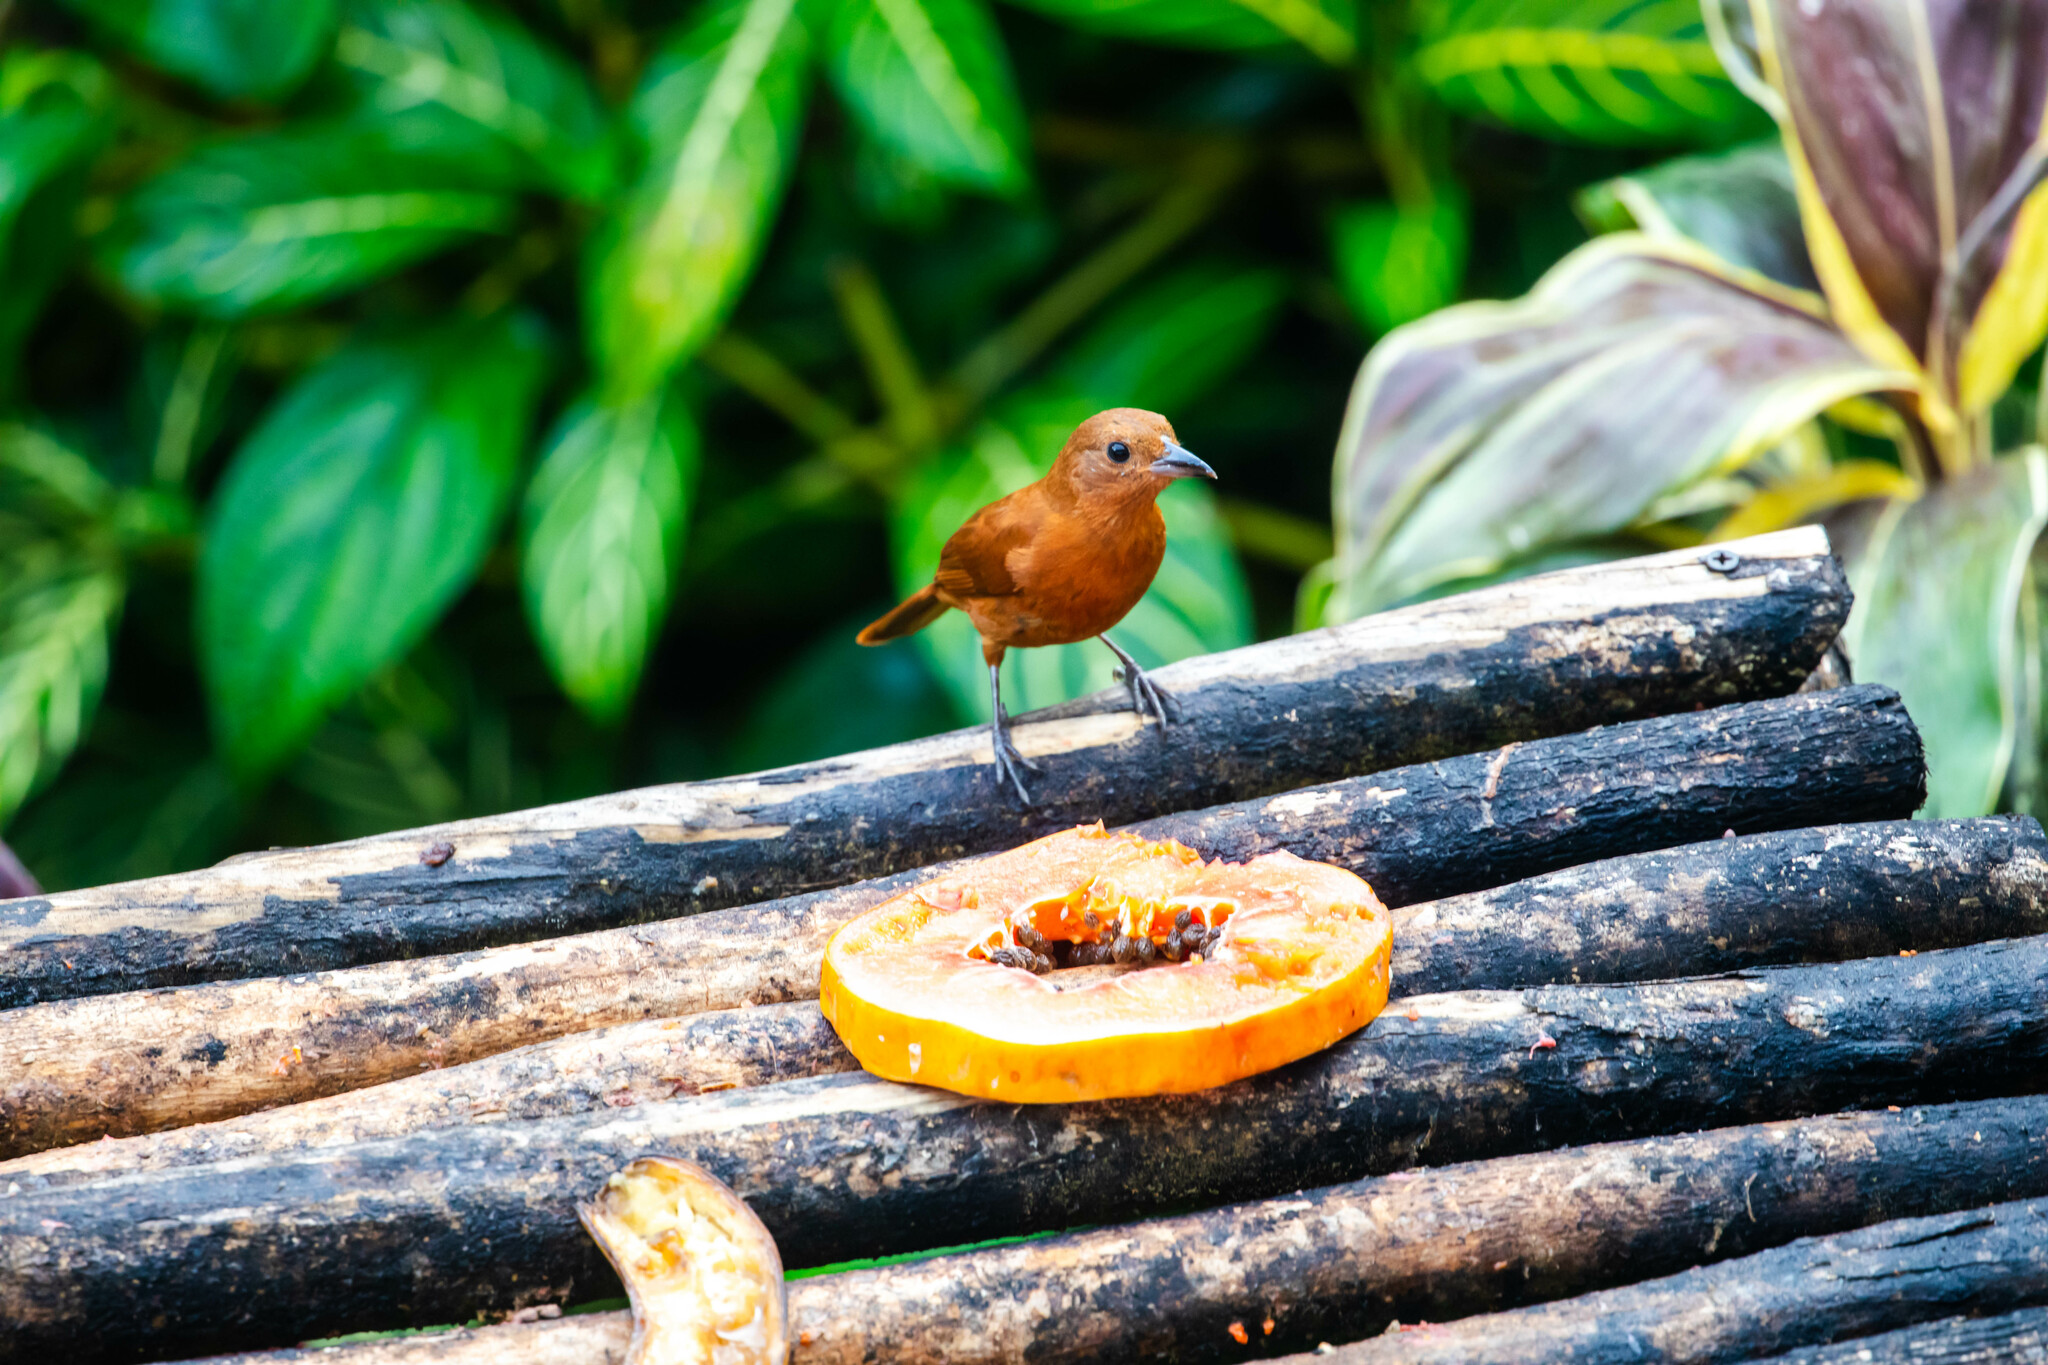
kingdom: Animalia
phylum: Chordata
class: Aves
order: Passeriformes
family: Thraupidae
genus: Tachyphonus
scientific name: Tachyphonus rufus
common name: White-lined tanager
